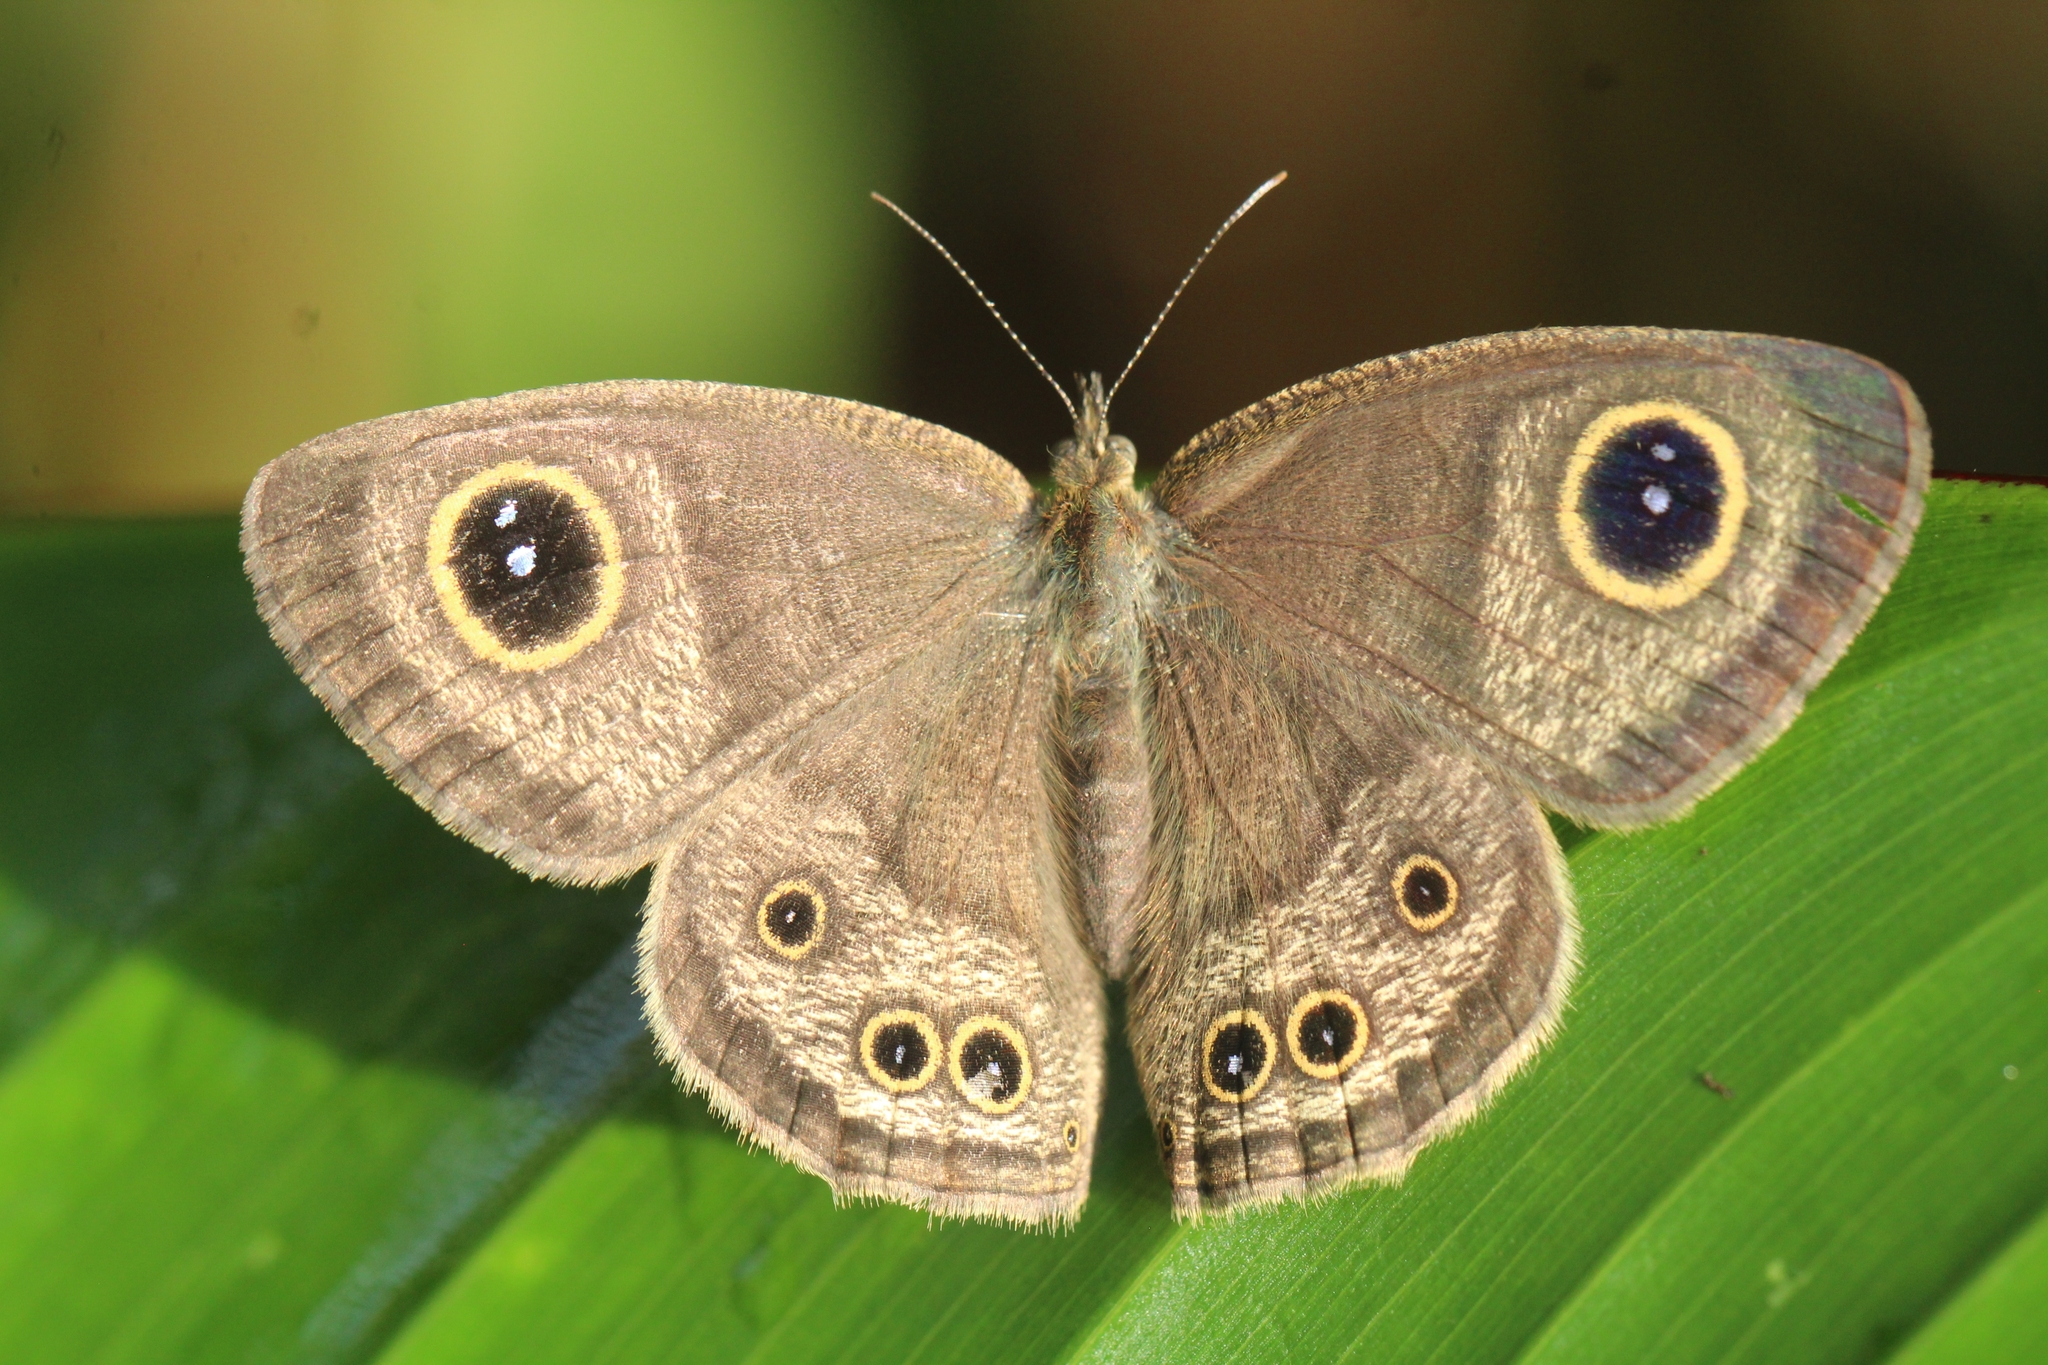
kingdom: Animalia
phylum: Arthropoda
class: Insecta
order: Lepidoptera
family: Nymphalidae
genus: Ypthima
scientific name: Ypthima baldus
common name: Common five-ring
